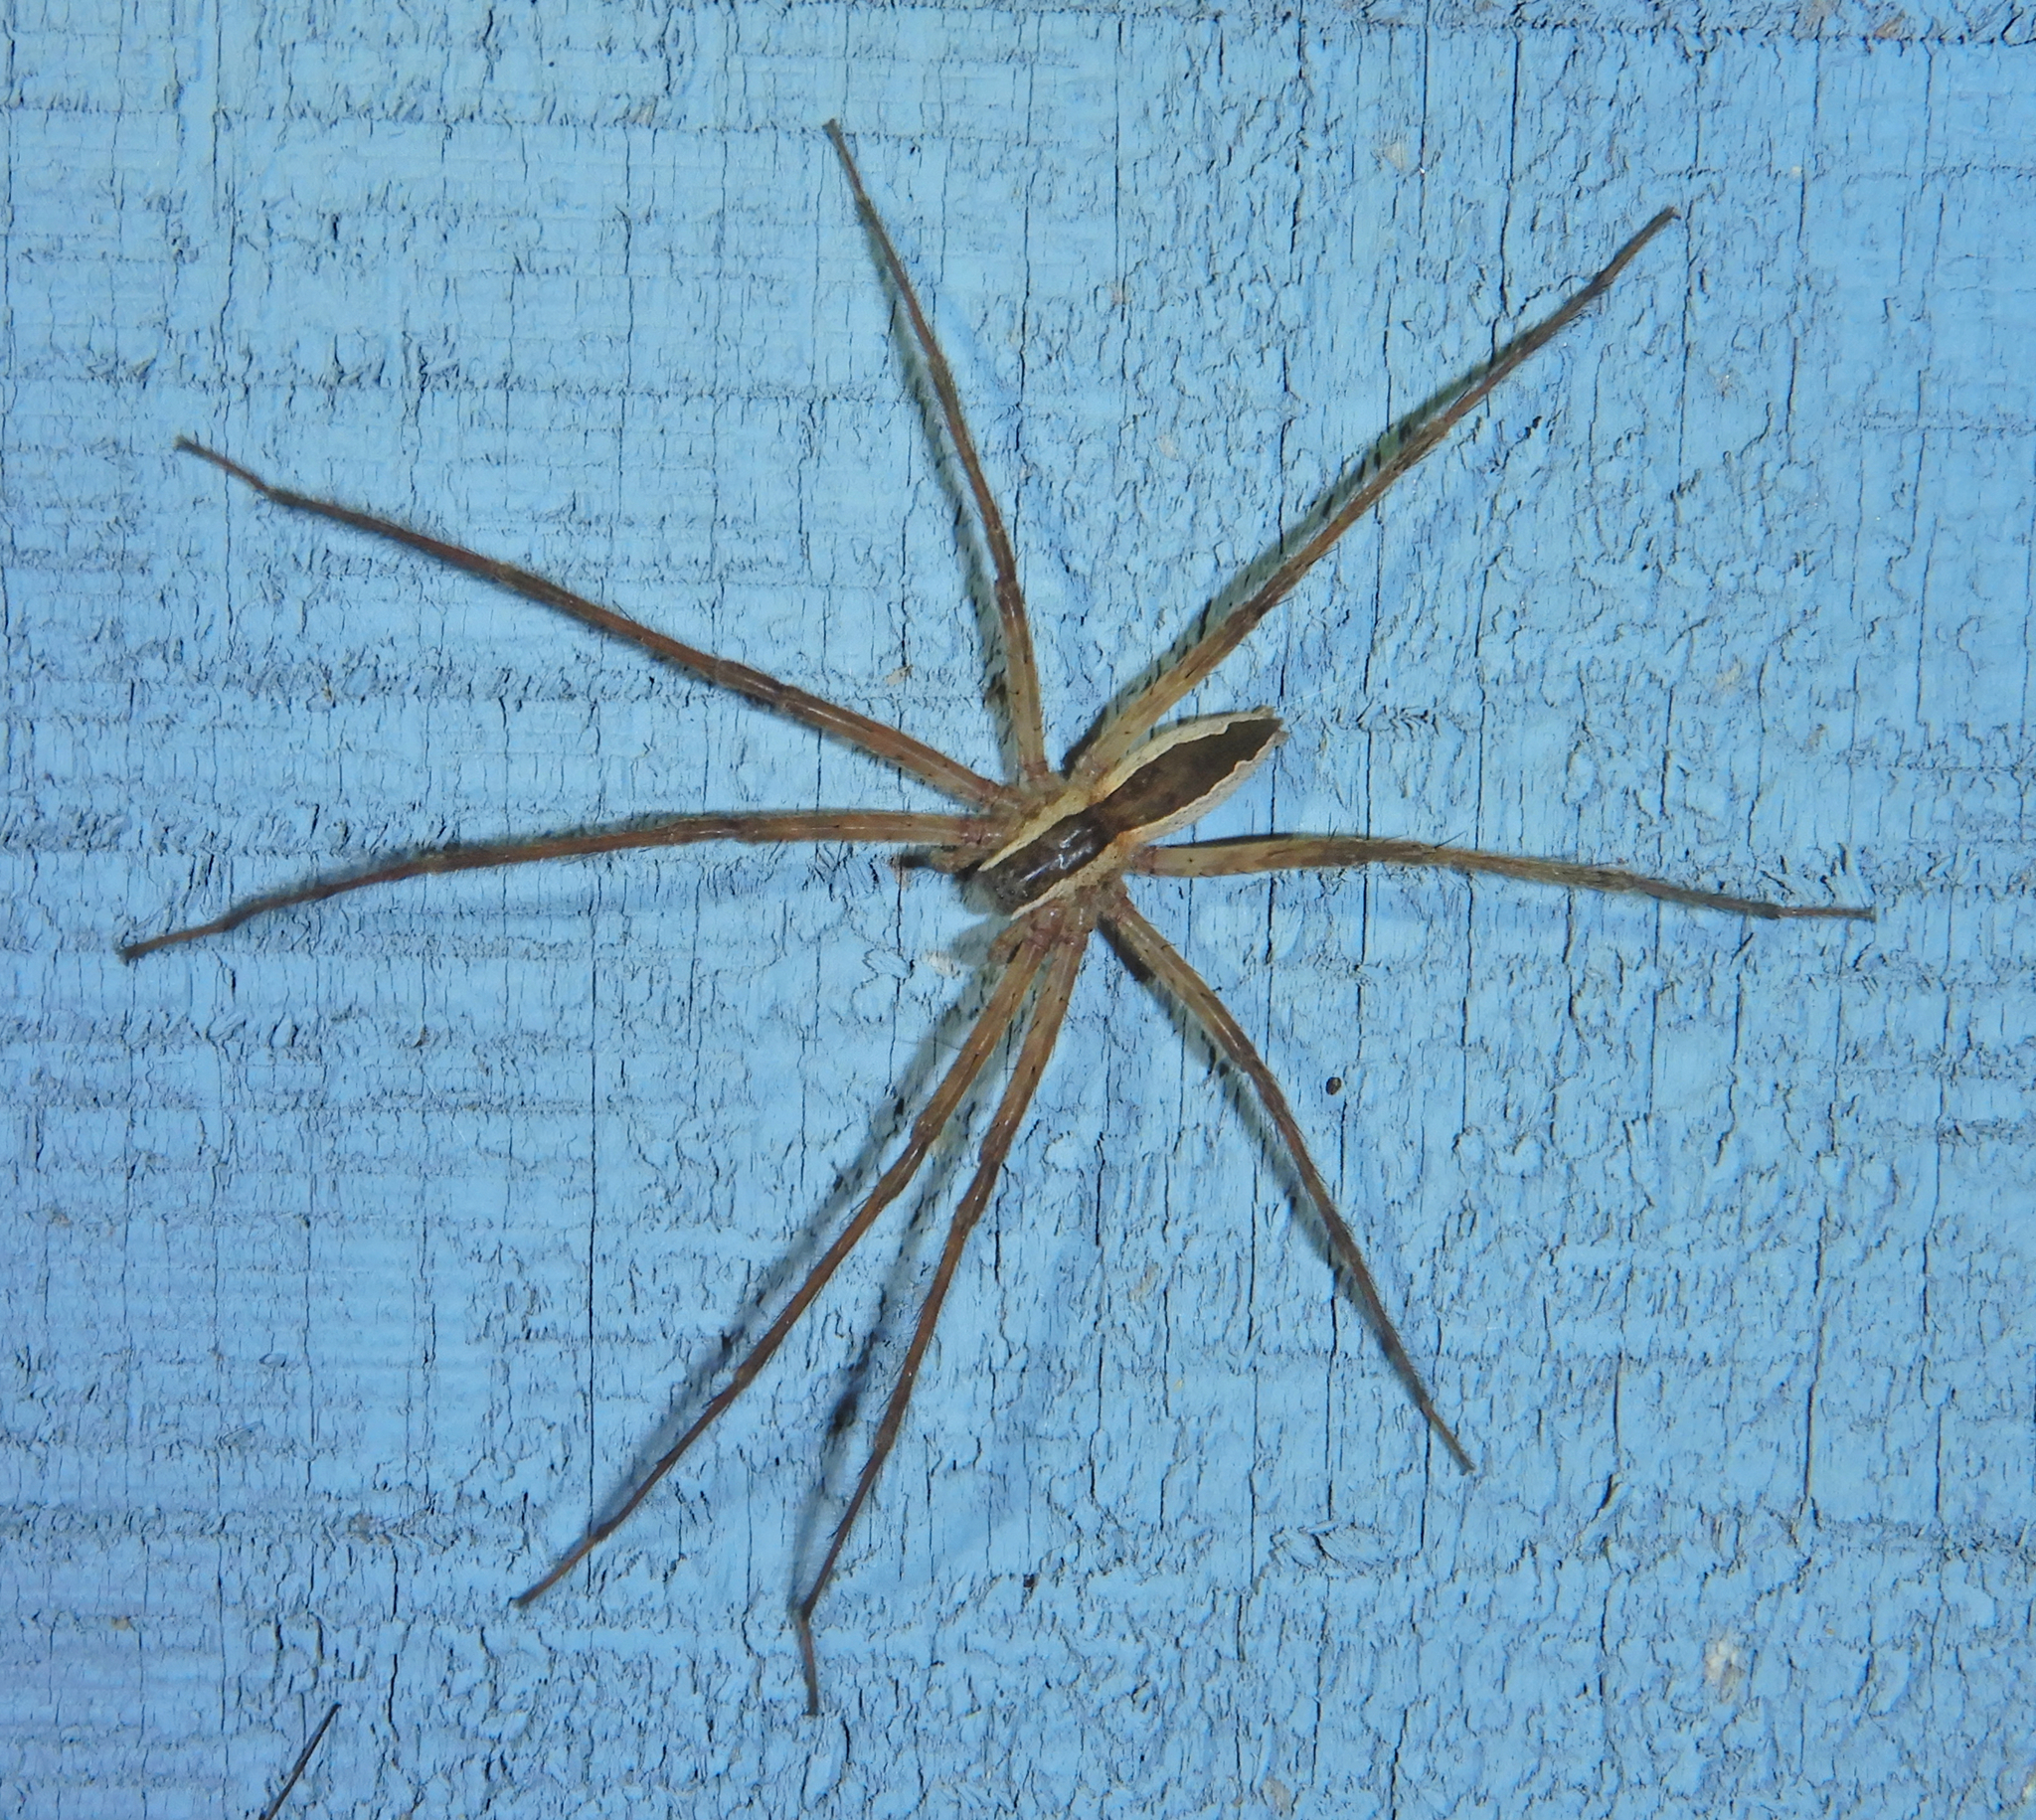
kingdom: Animalia
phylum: Arthropoda
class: Arachnida
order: Araneae
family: Pisauridae
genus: Pisaurina
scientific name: Pisaurina mira
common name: American nursery web spider
